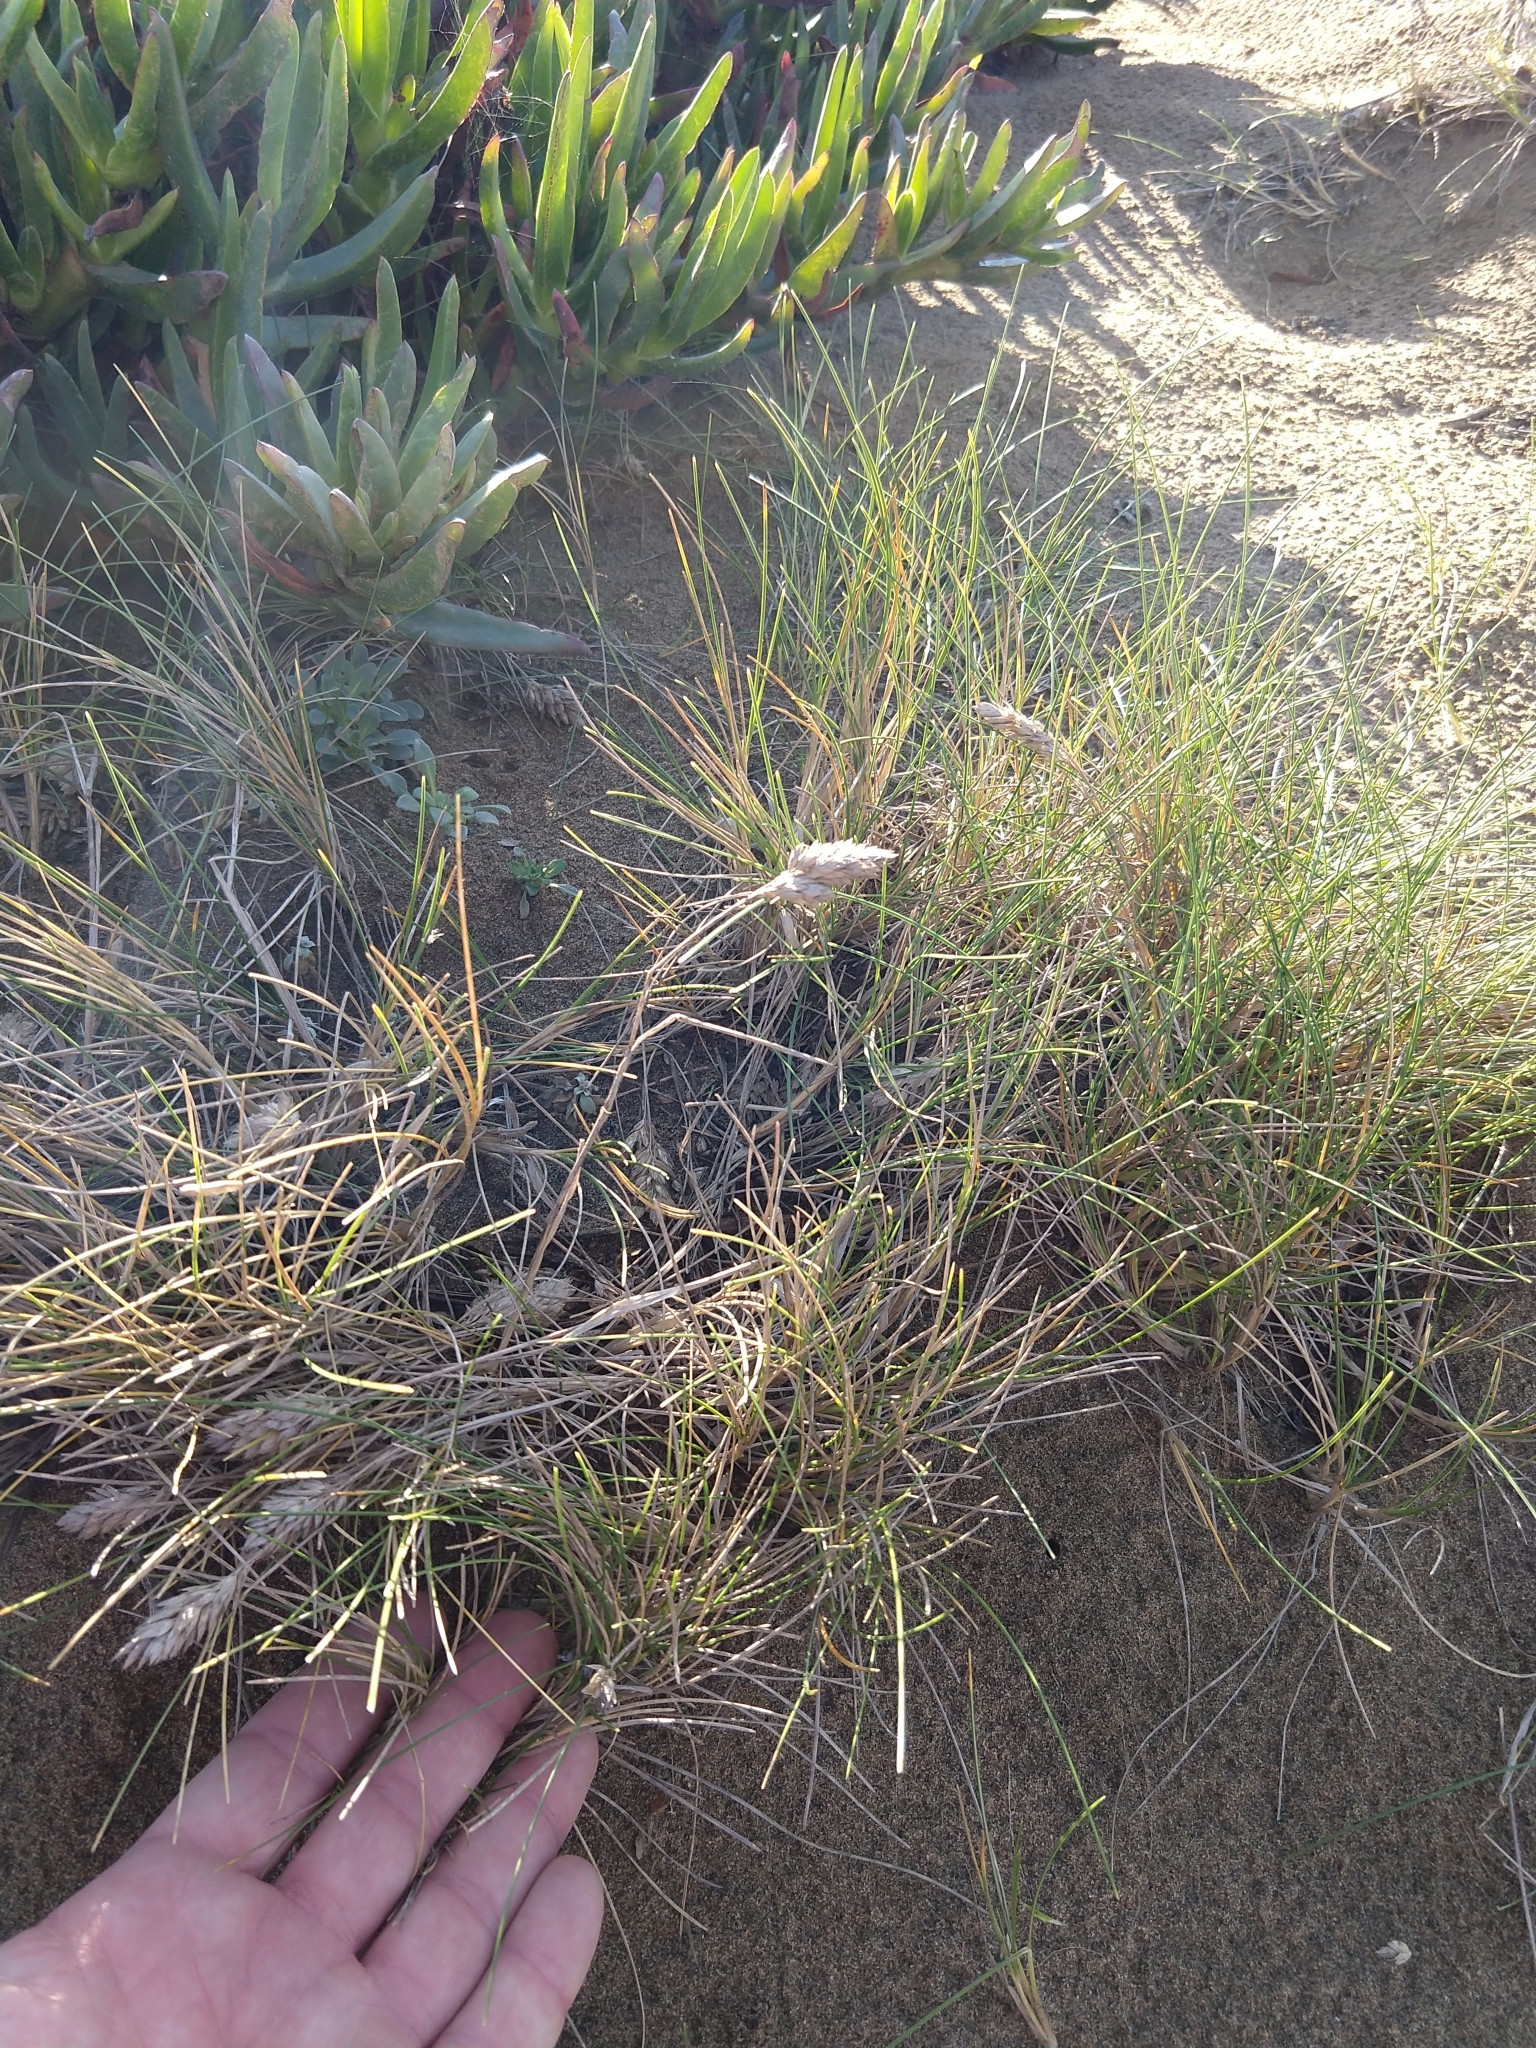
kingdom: Plantae
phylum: Tracheophyta
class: Liliopsida
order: Poales
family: Poaceae
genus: Poa
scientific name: Poa douglasii
